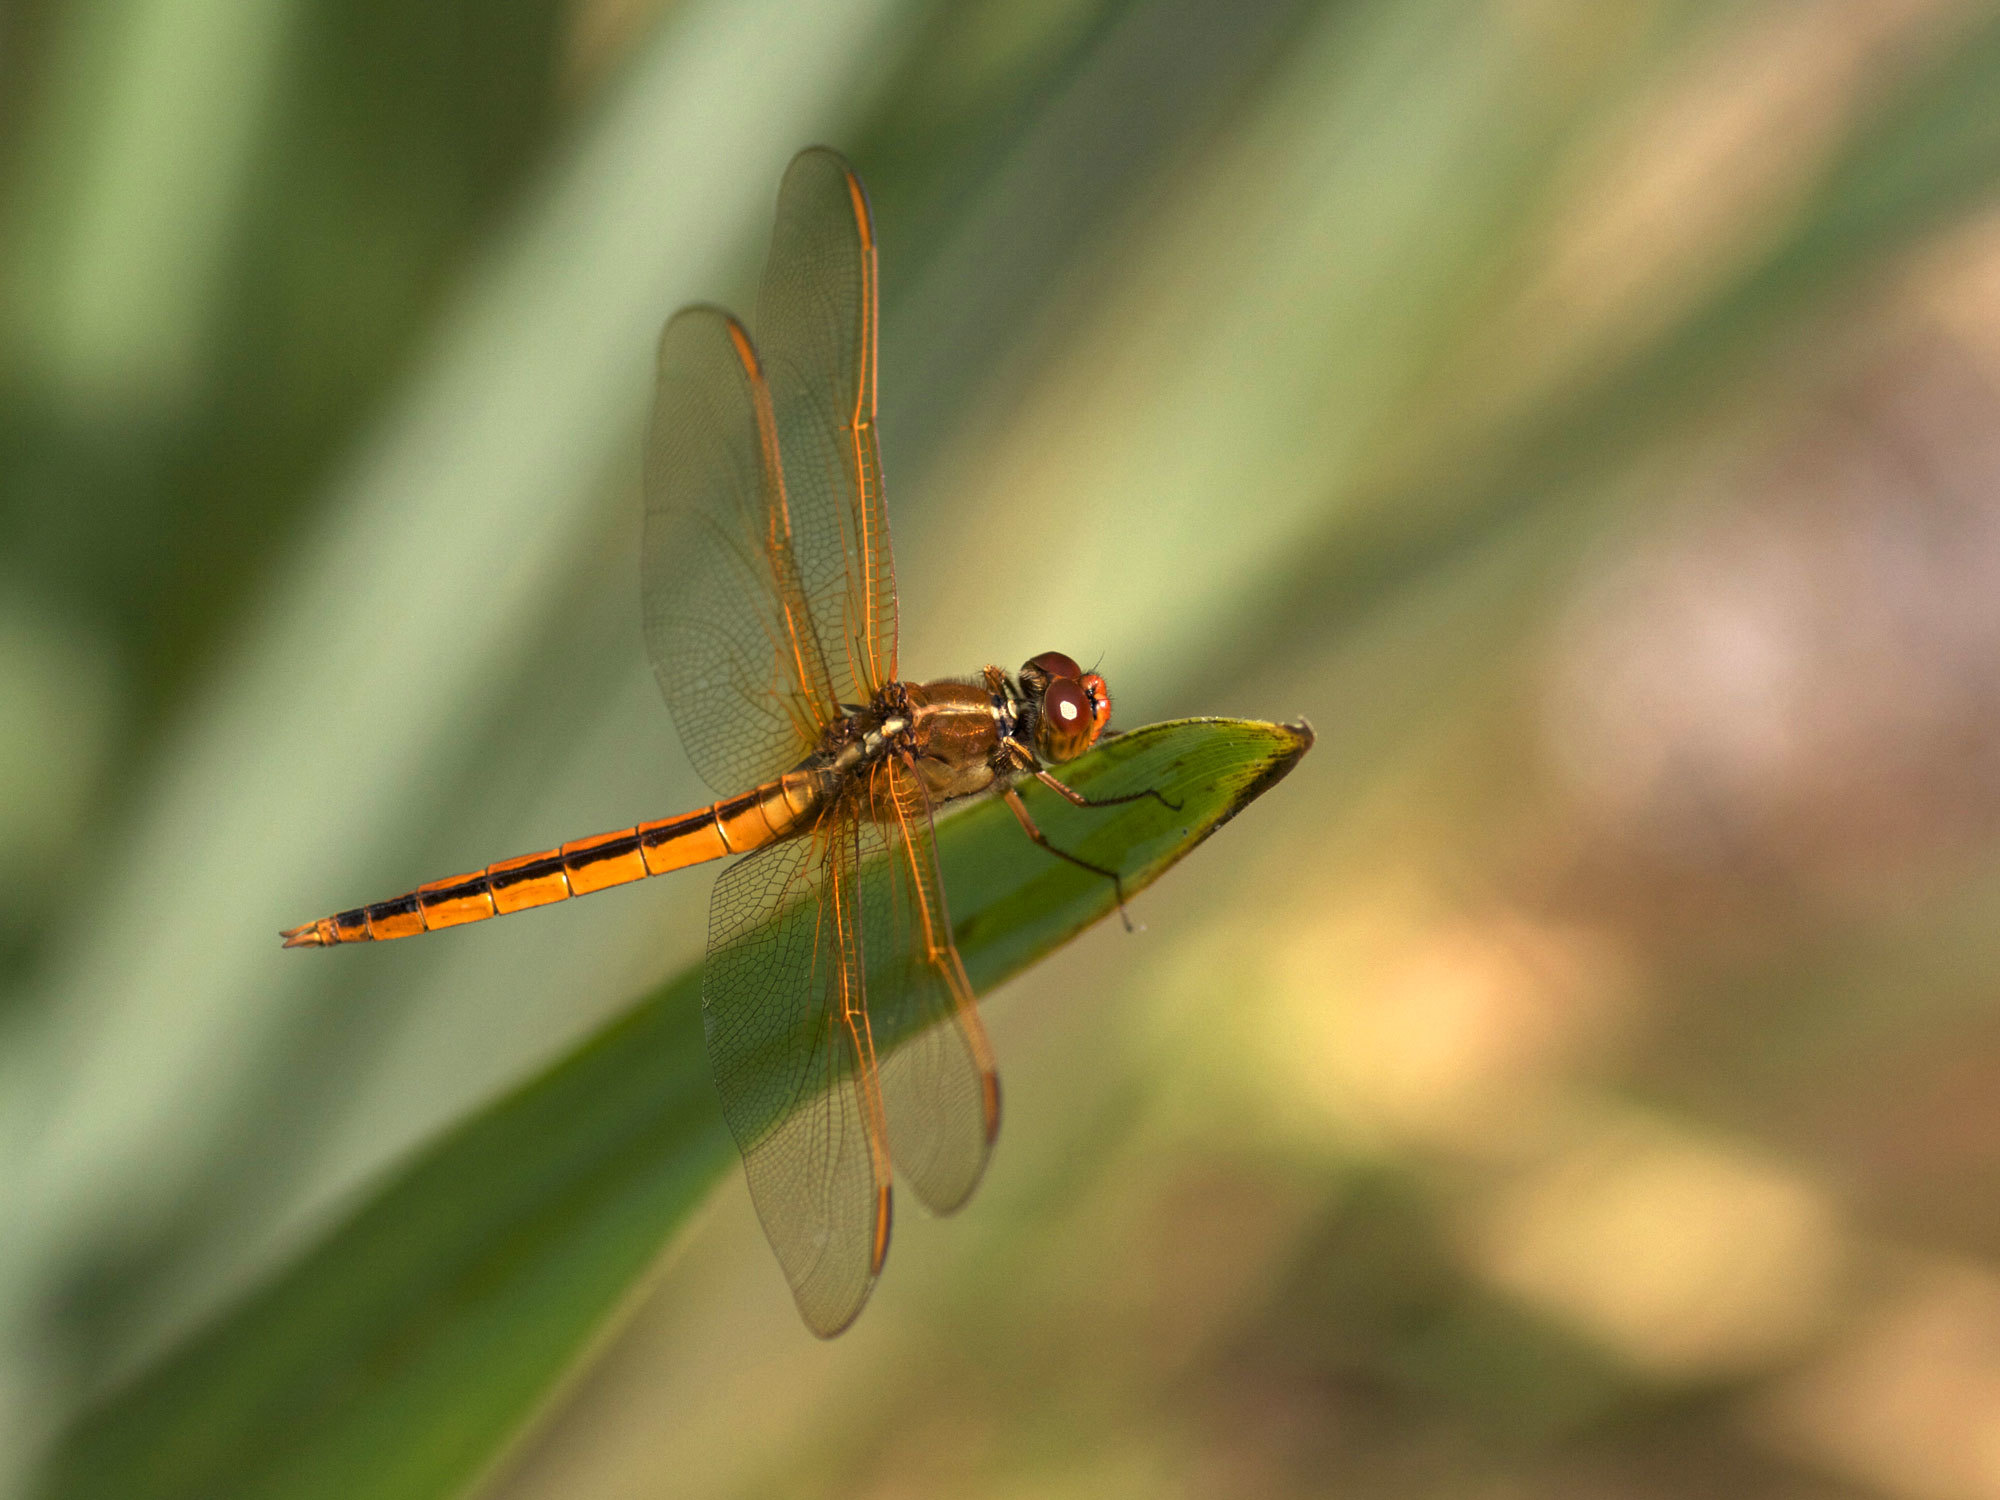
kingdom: Animalia
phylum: Arthropoda
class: Insecta
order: Odonata
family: Libellulidae
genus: Libellula
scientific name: Libellula needhami
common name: Needham's skimmer
